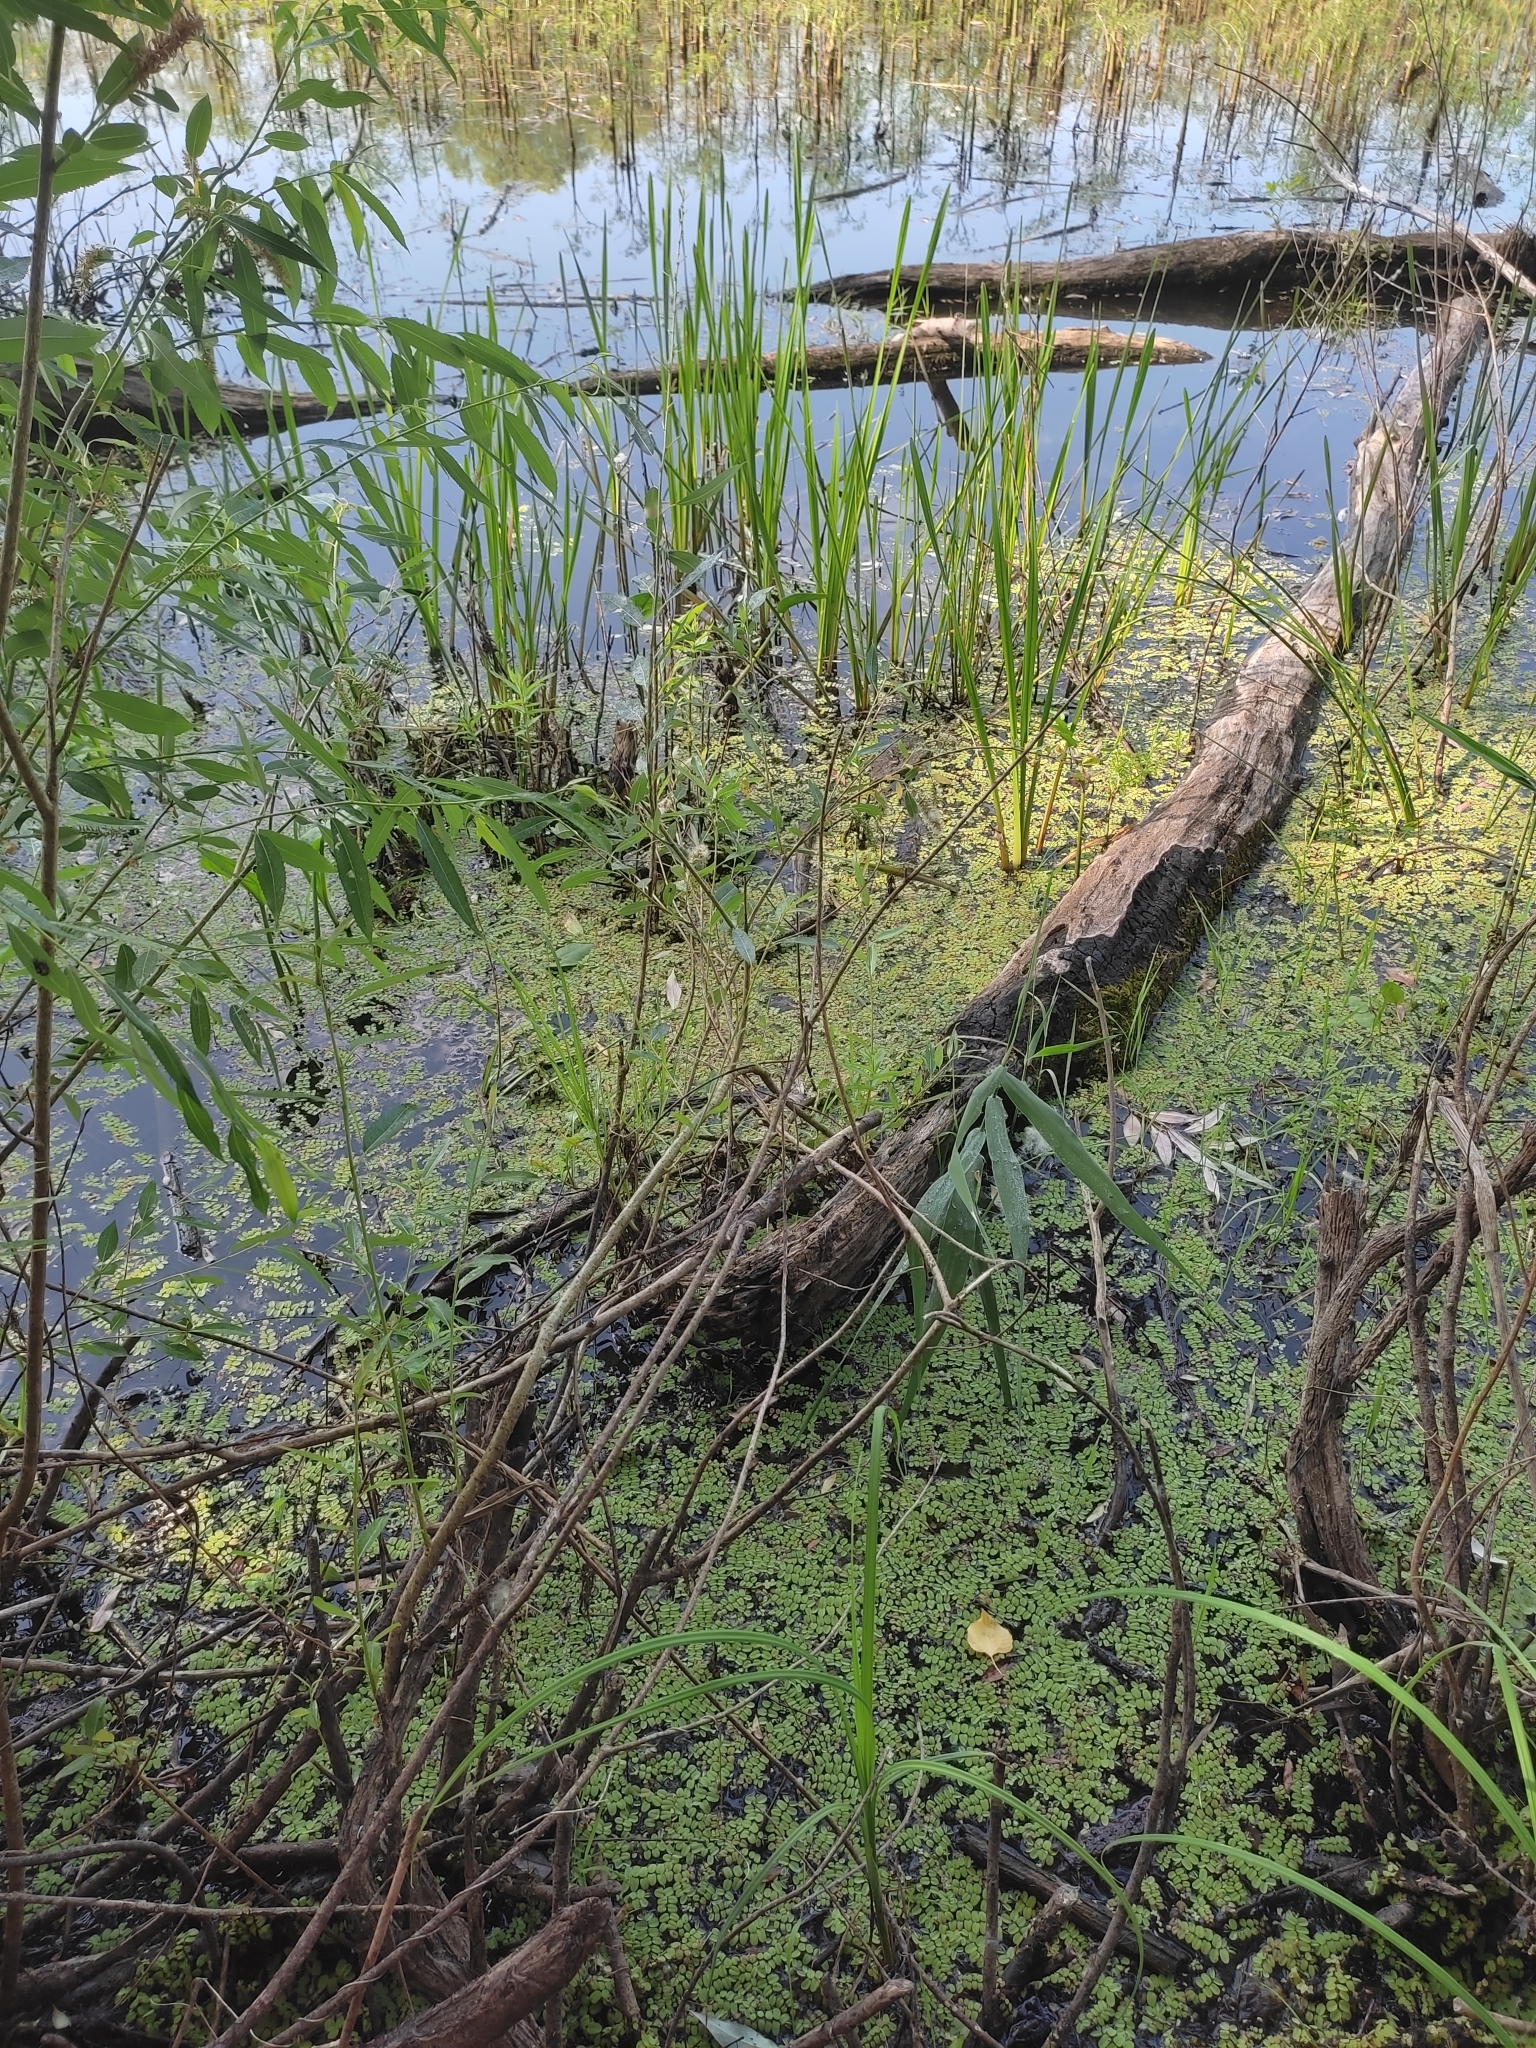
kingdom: Plantae
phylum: Tracheophyta
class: Polypodiopsida
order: Salviniales
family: Salviniaceae
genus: Salvinia
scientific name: Salvinia natans
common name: Floating fern
